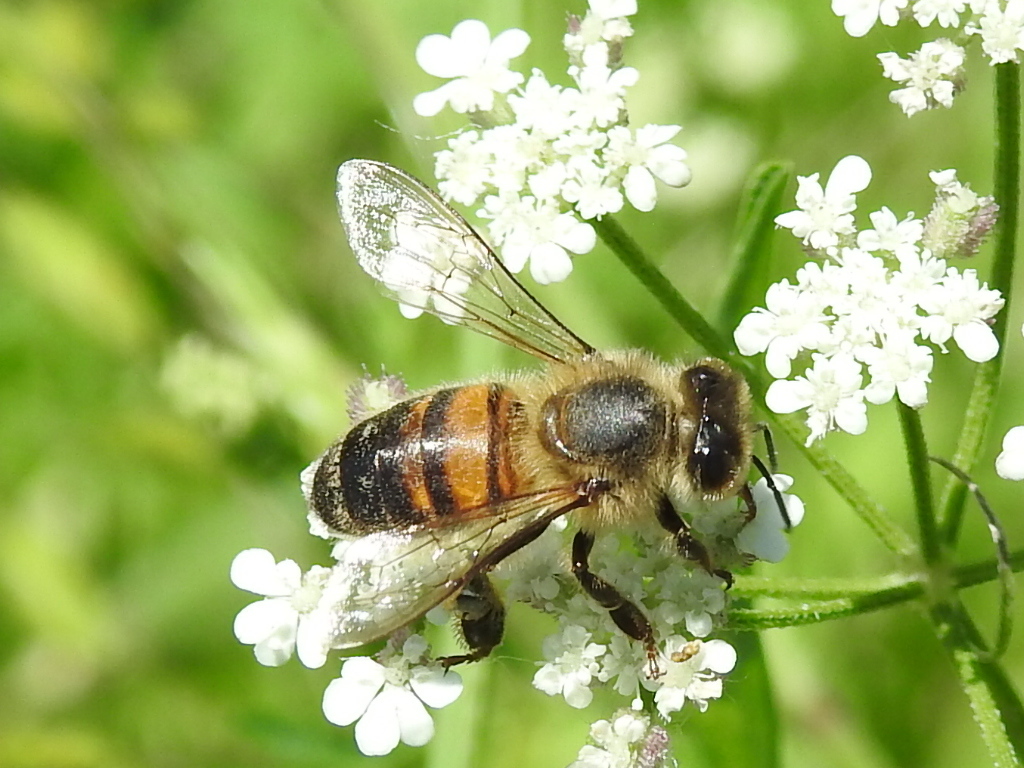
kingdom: Animalia
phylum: Arthropoda
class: Insecta
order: Hymenoptera
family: Apidae
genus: Apis
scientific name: Apis mellifera
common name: Honey bee
